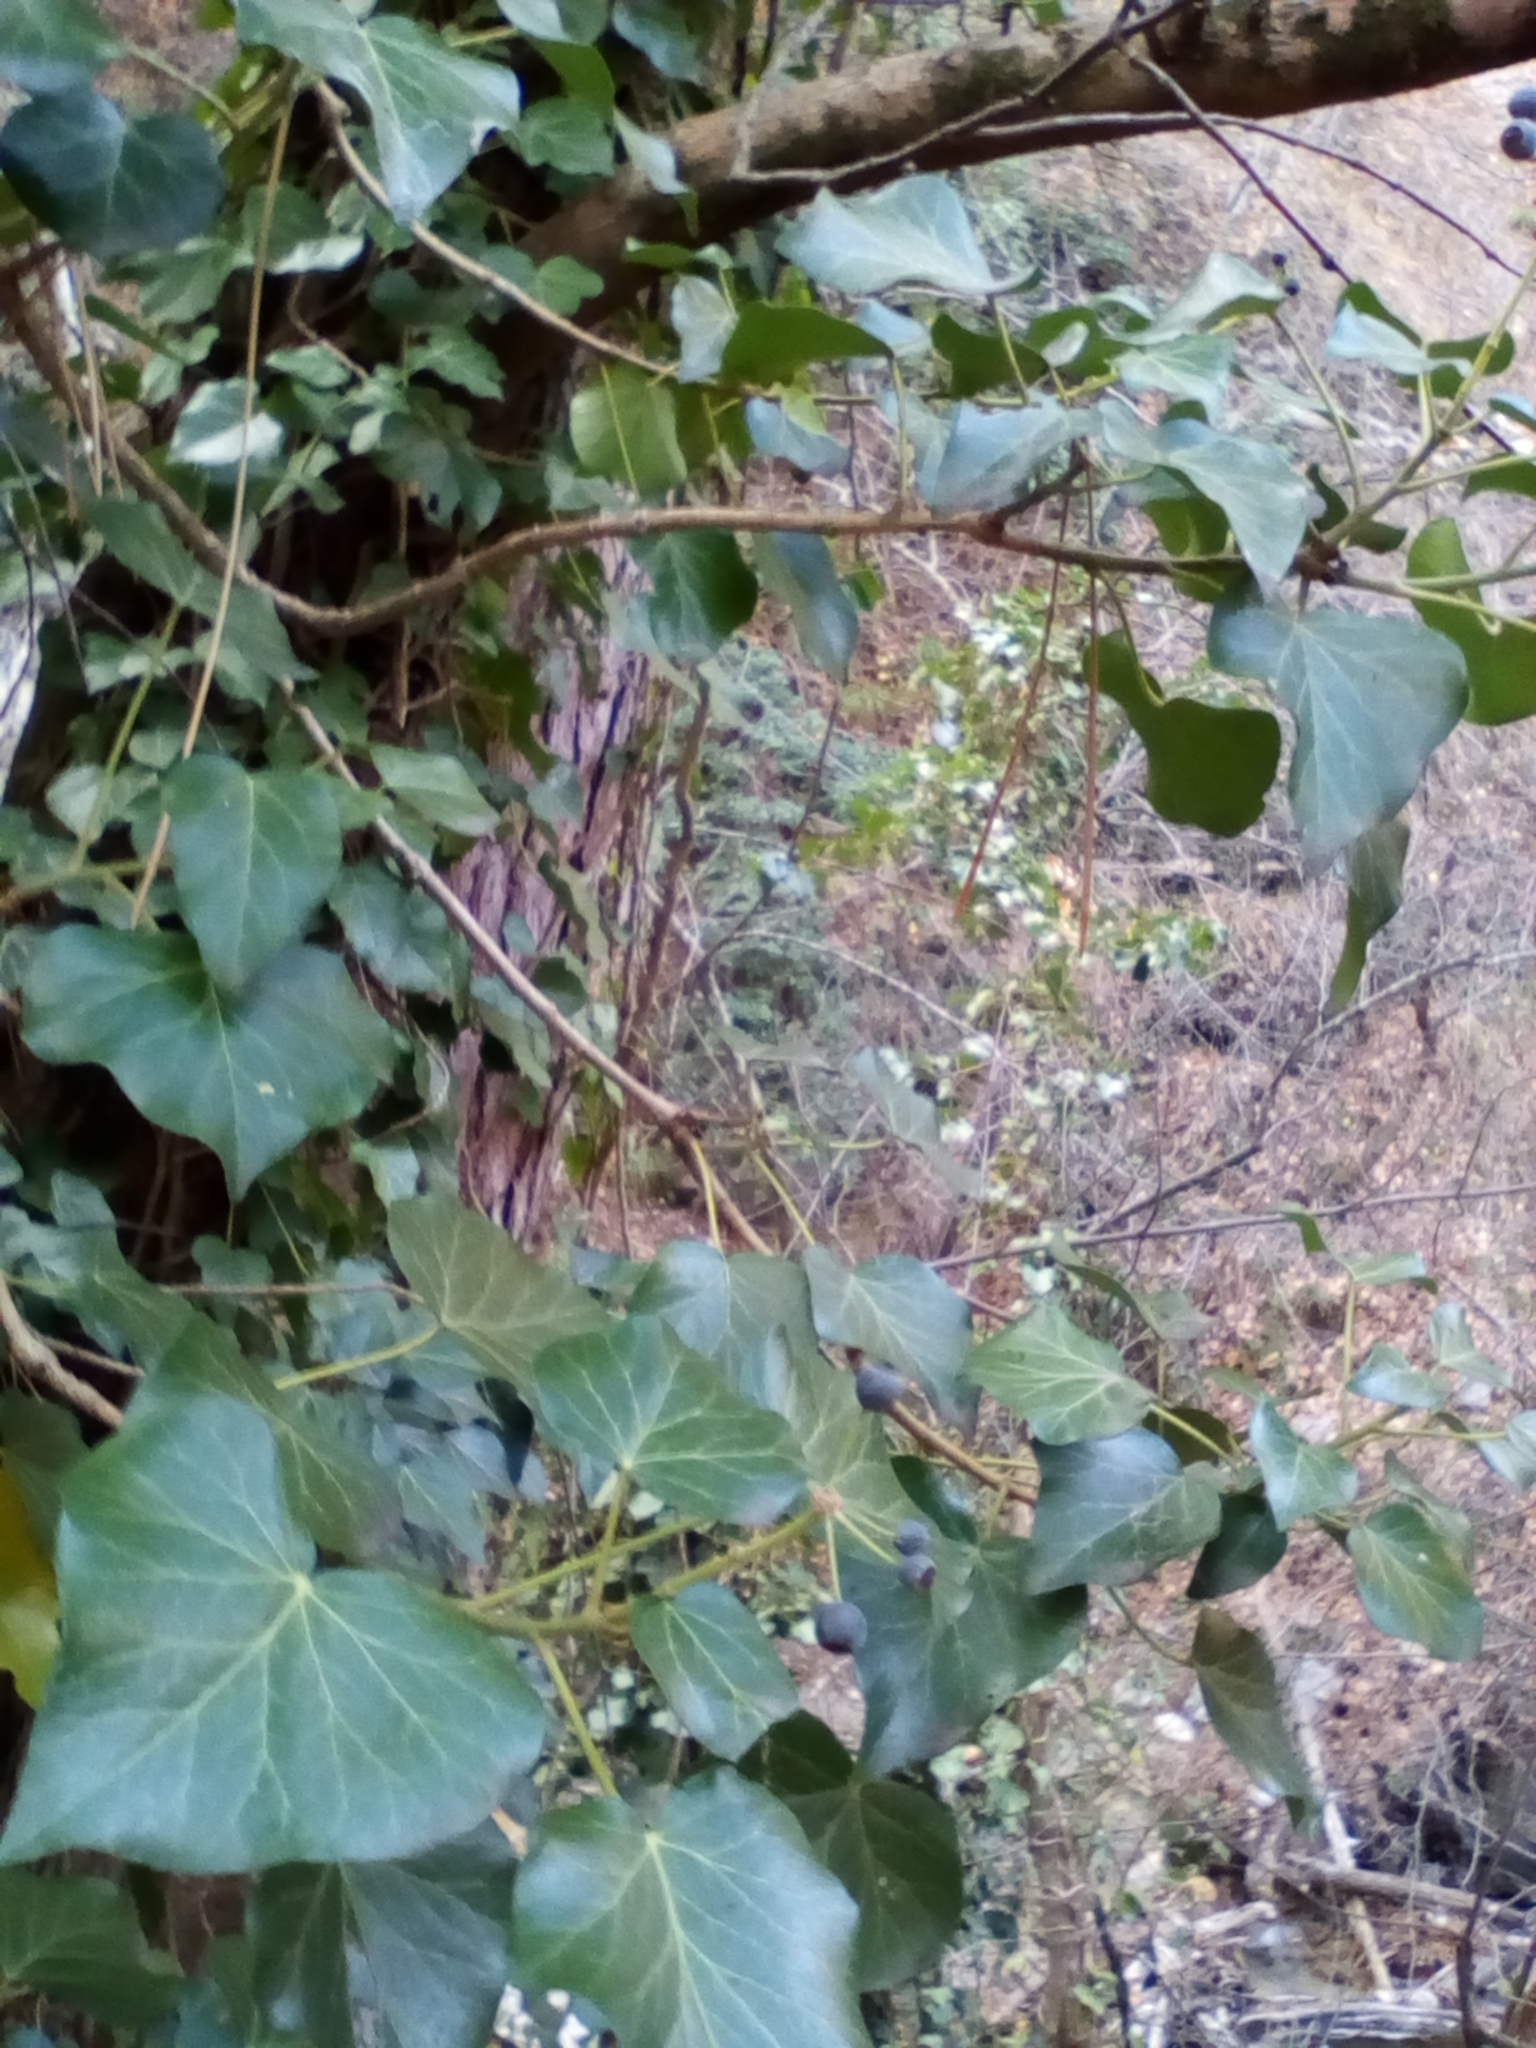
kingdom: Plantae
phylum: Tracheophyta
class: Magnoliopsida
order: Apiales
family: Araliaceae
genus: Hedera
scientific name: Hedera helix
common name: Ivy
